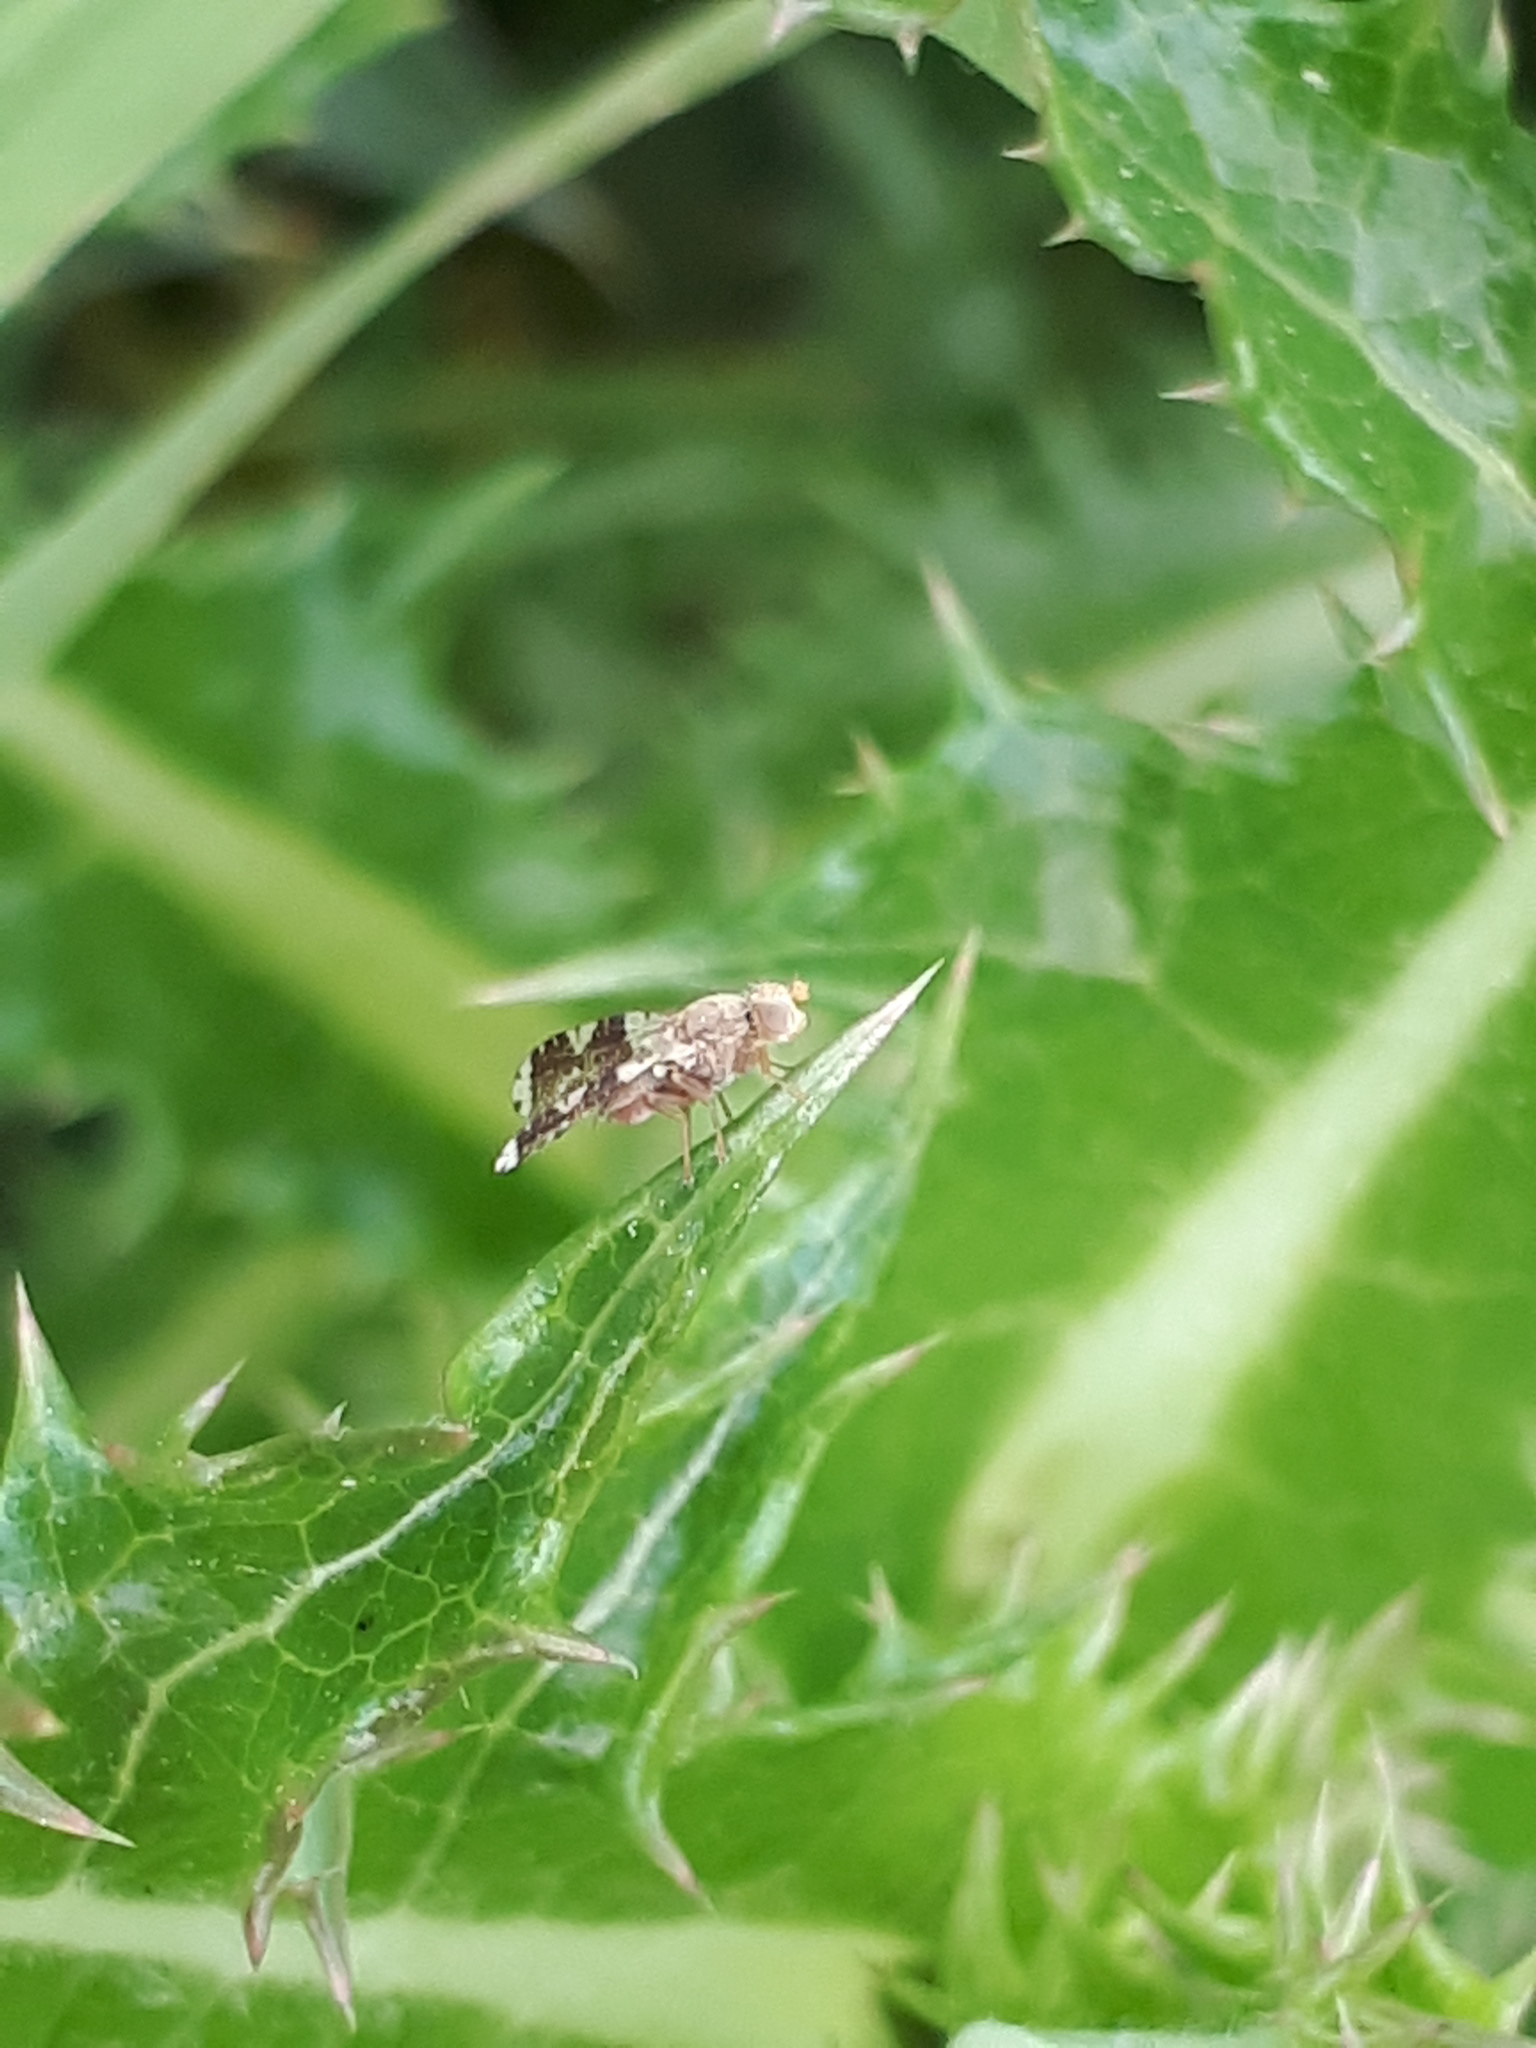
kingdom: Animalia
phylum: Arthropoda
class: Insecta
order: Diptera
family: Tephritidae
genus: Tephritis
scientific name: Tephritis formosa
